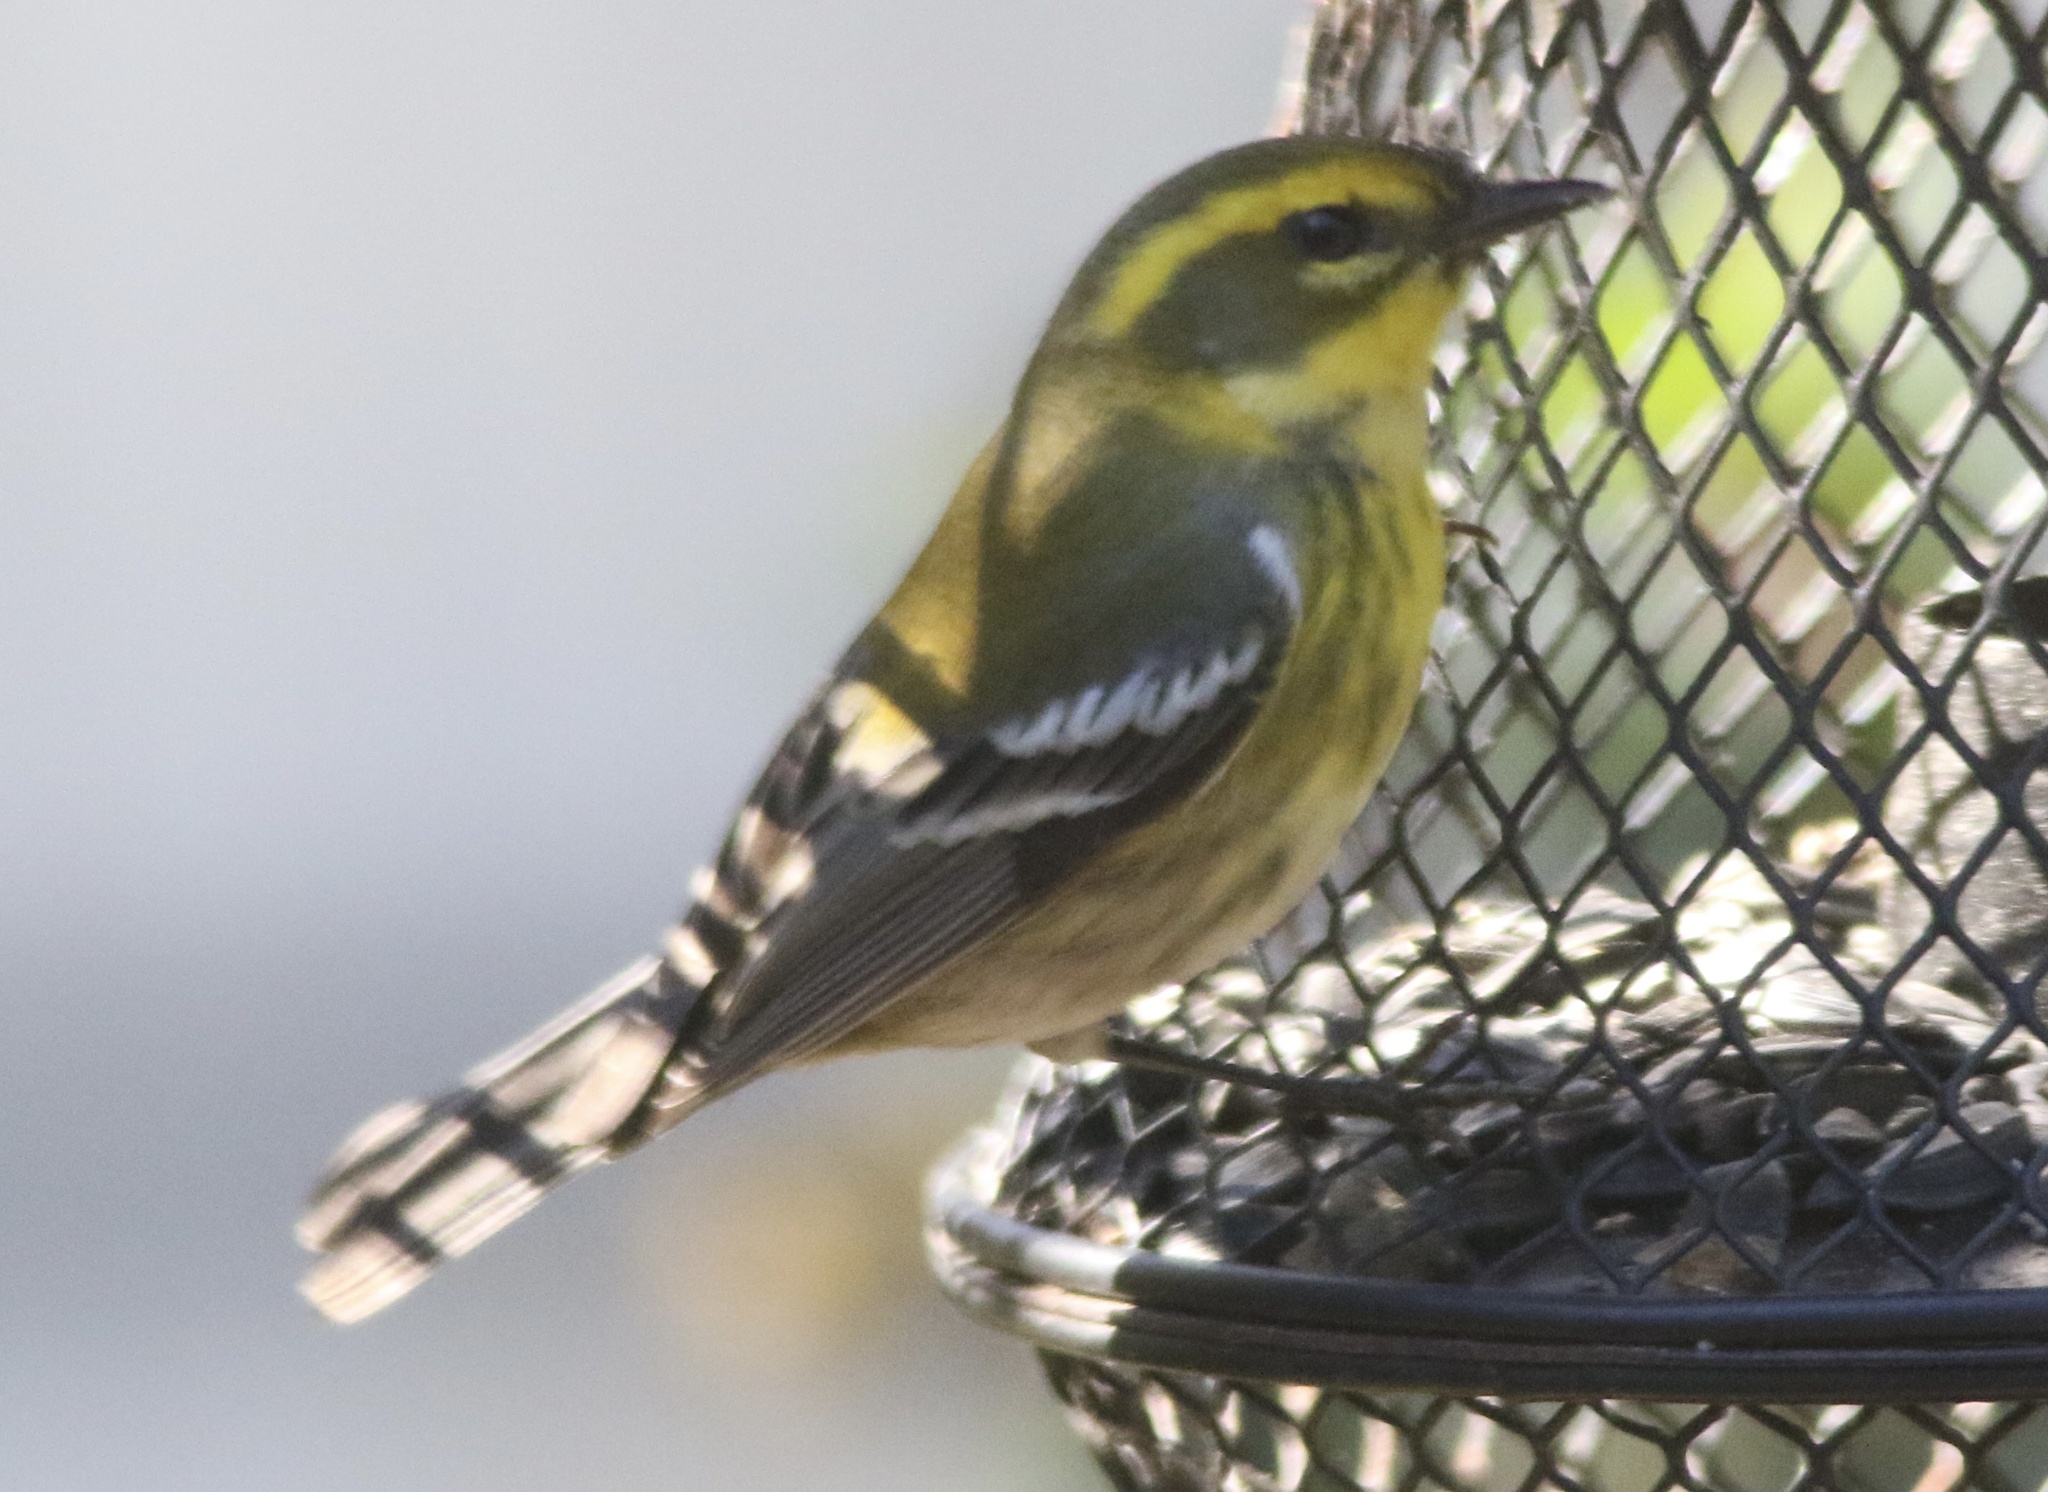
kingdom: Animalia
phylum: Chordata
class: Aves
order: Passeriformes
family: Parulidae
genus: Setophaga
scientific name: Setophaga townsendi
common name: Townsend's warbler
